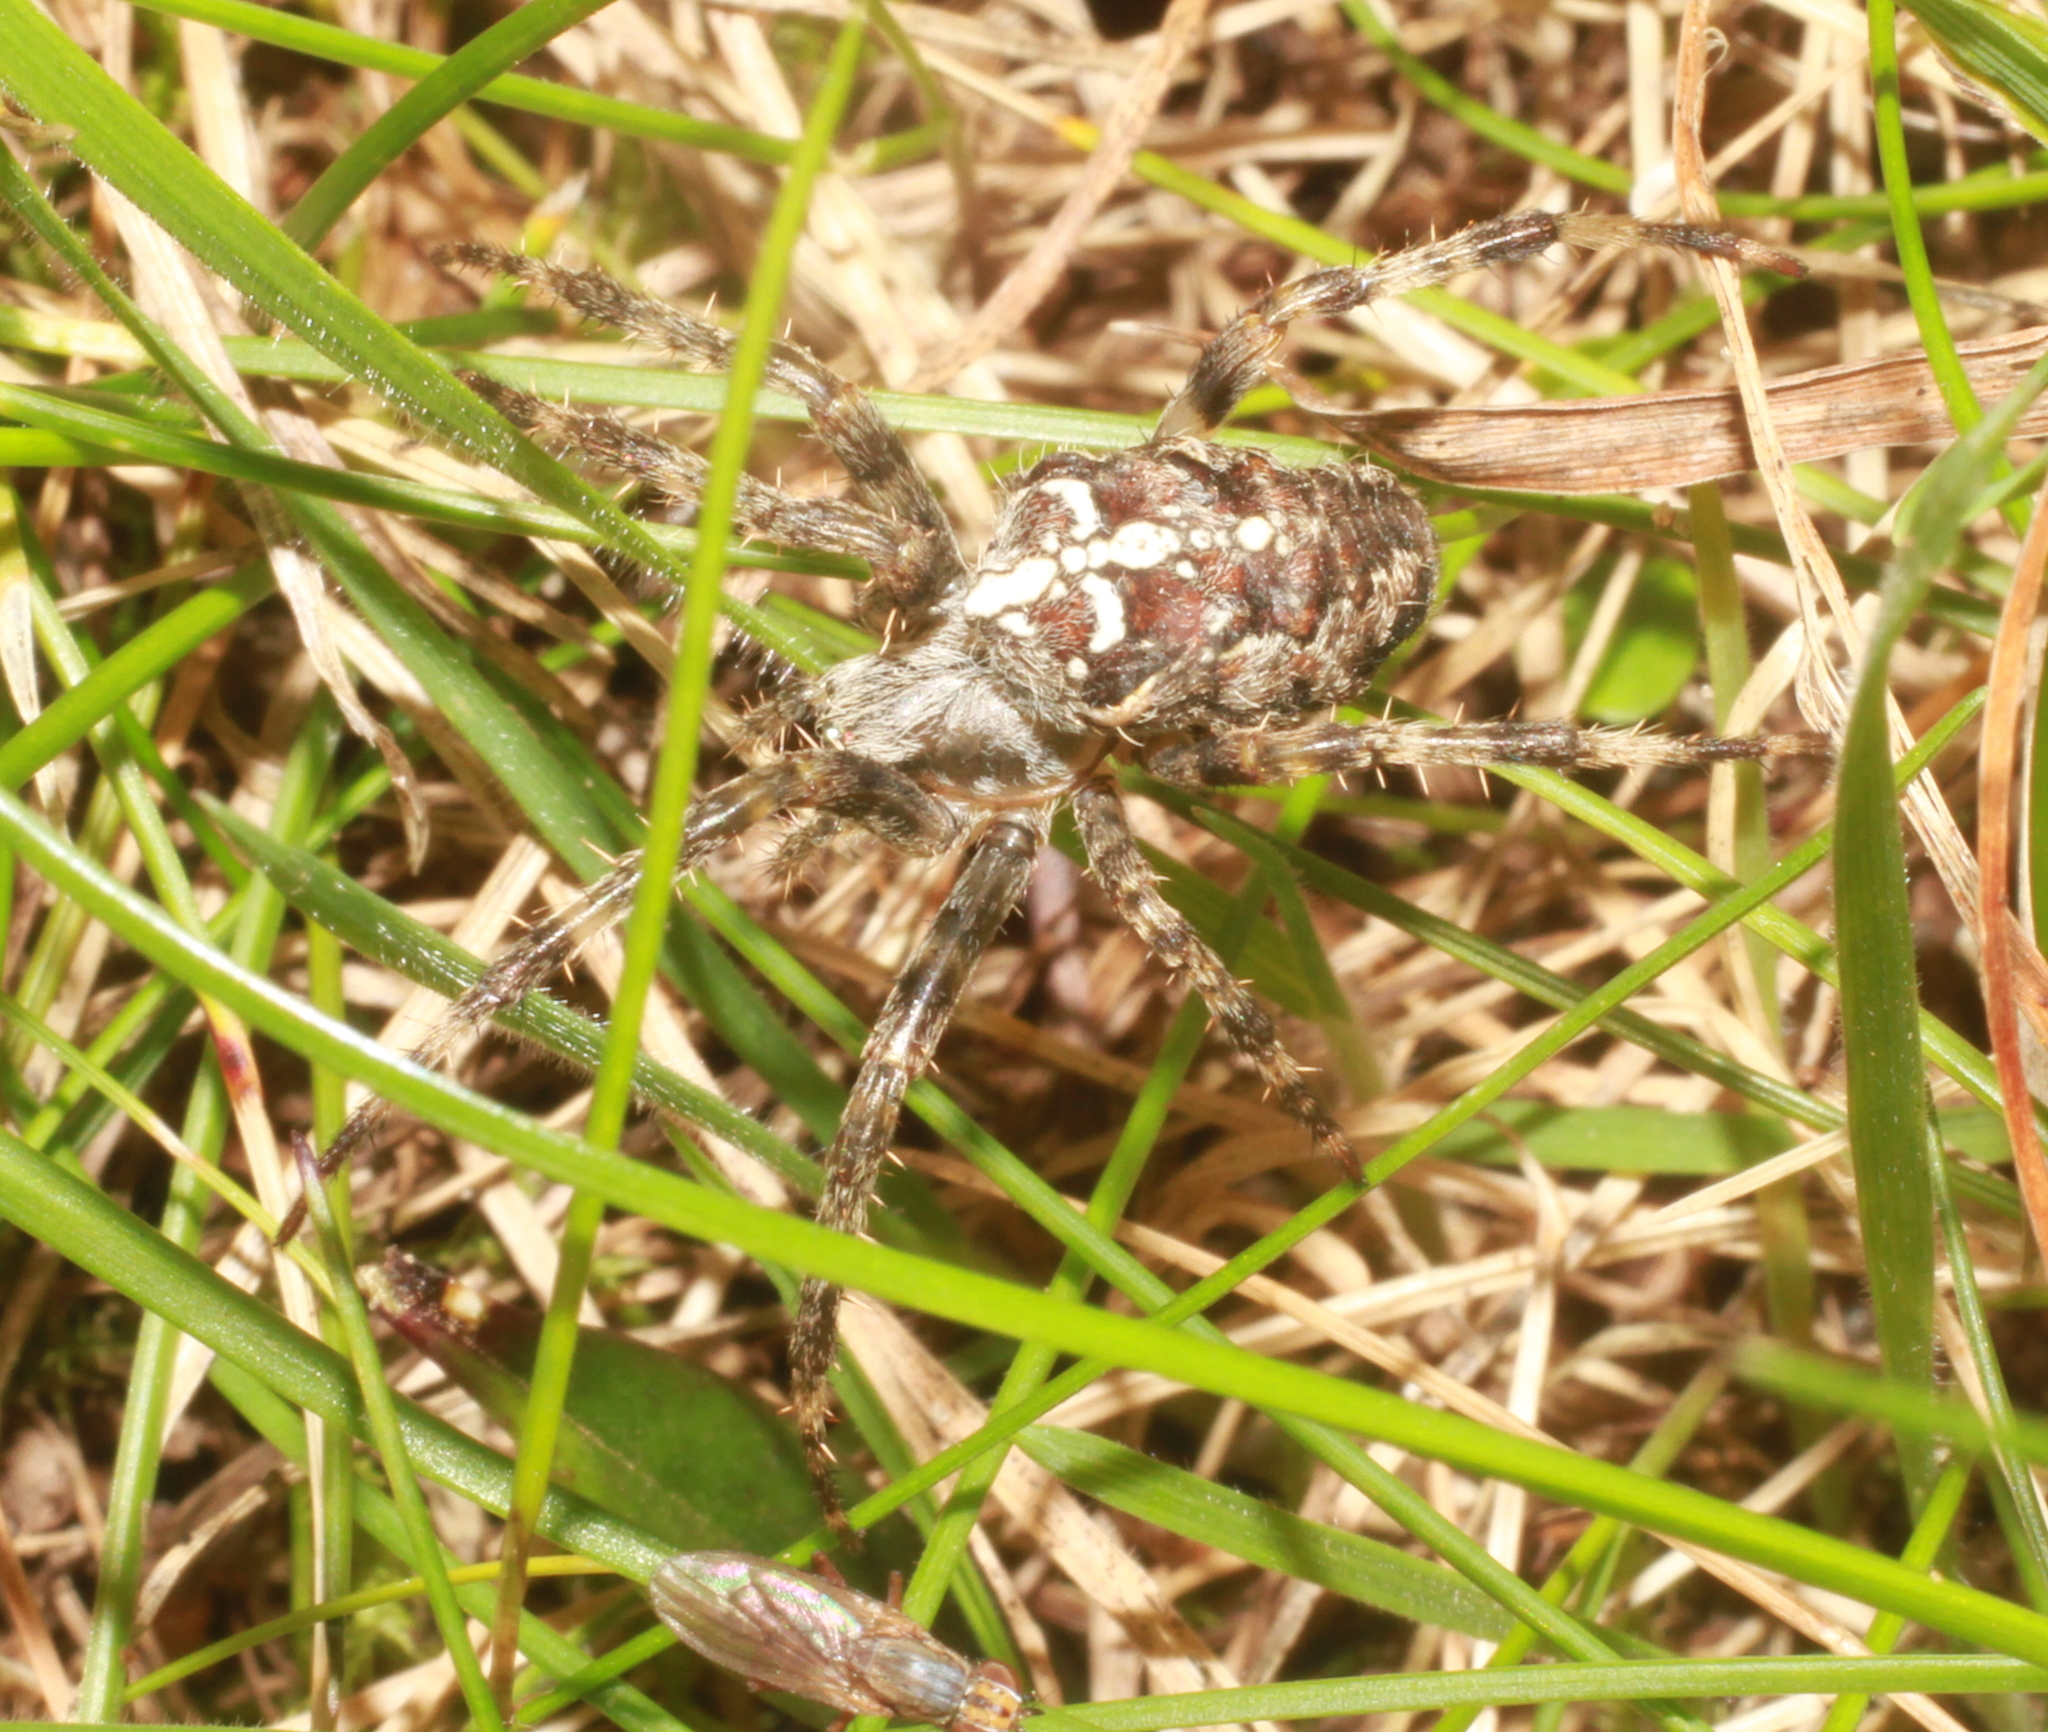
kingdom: Animalia
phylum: Arthropoda
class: Arachnida
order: Araneae
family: Araneidae
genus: Araneus
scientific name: Araneus diadematus
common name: Cross orbweaver
